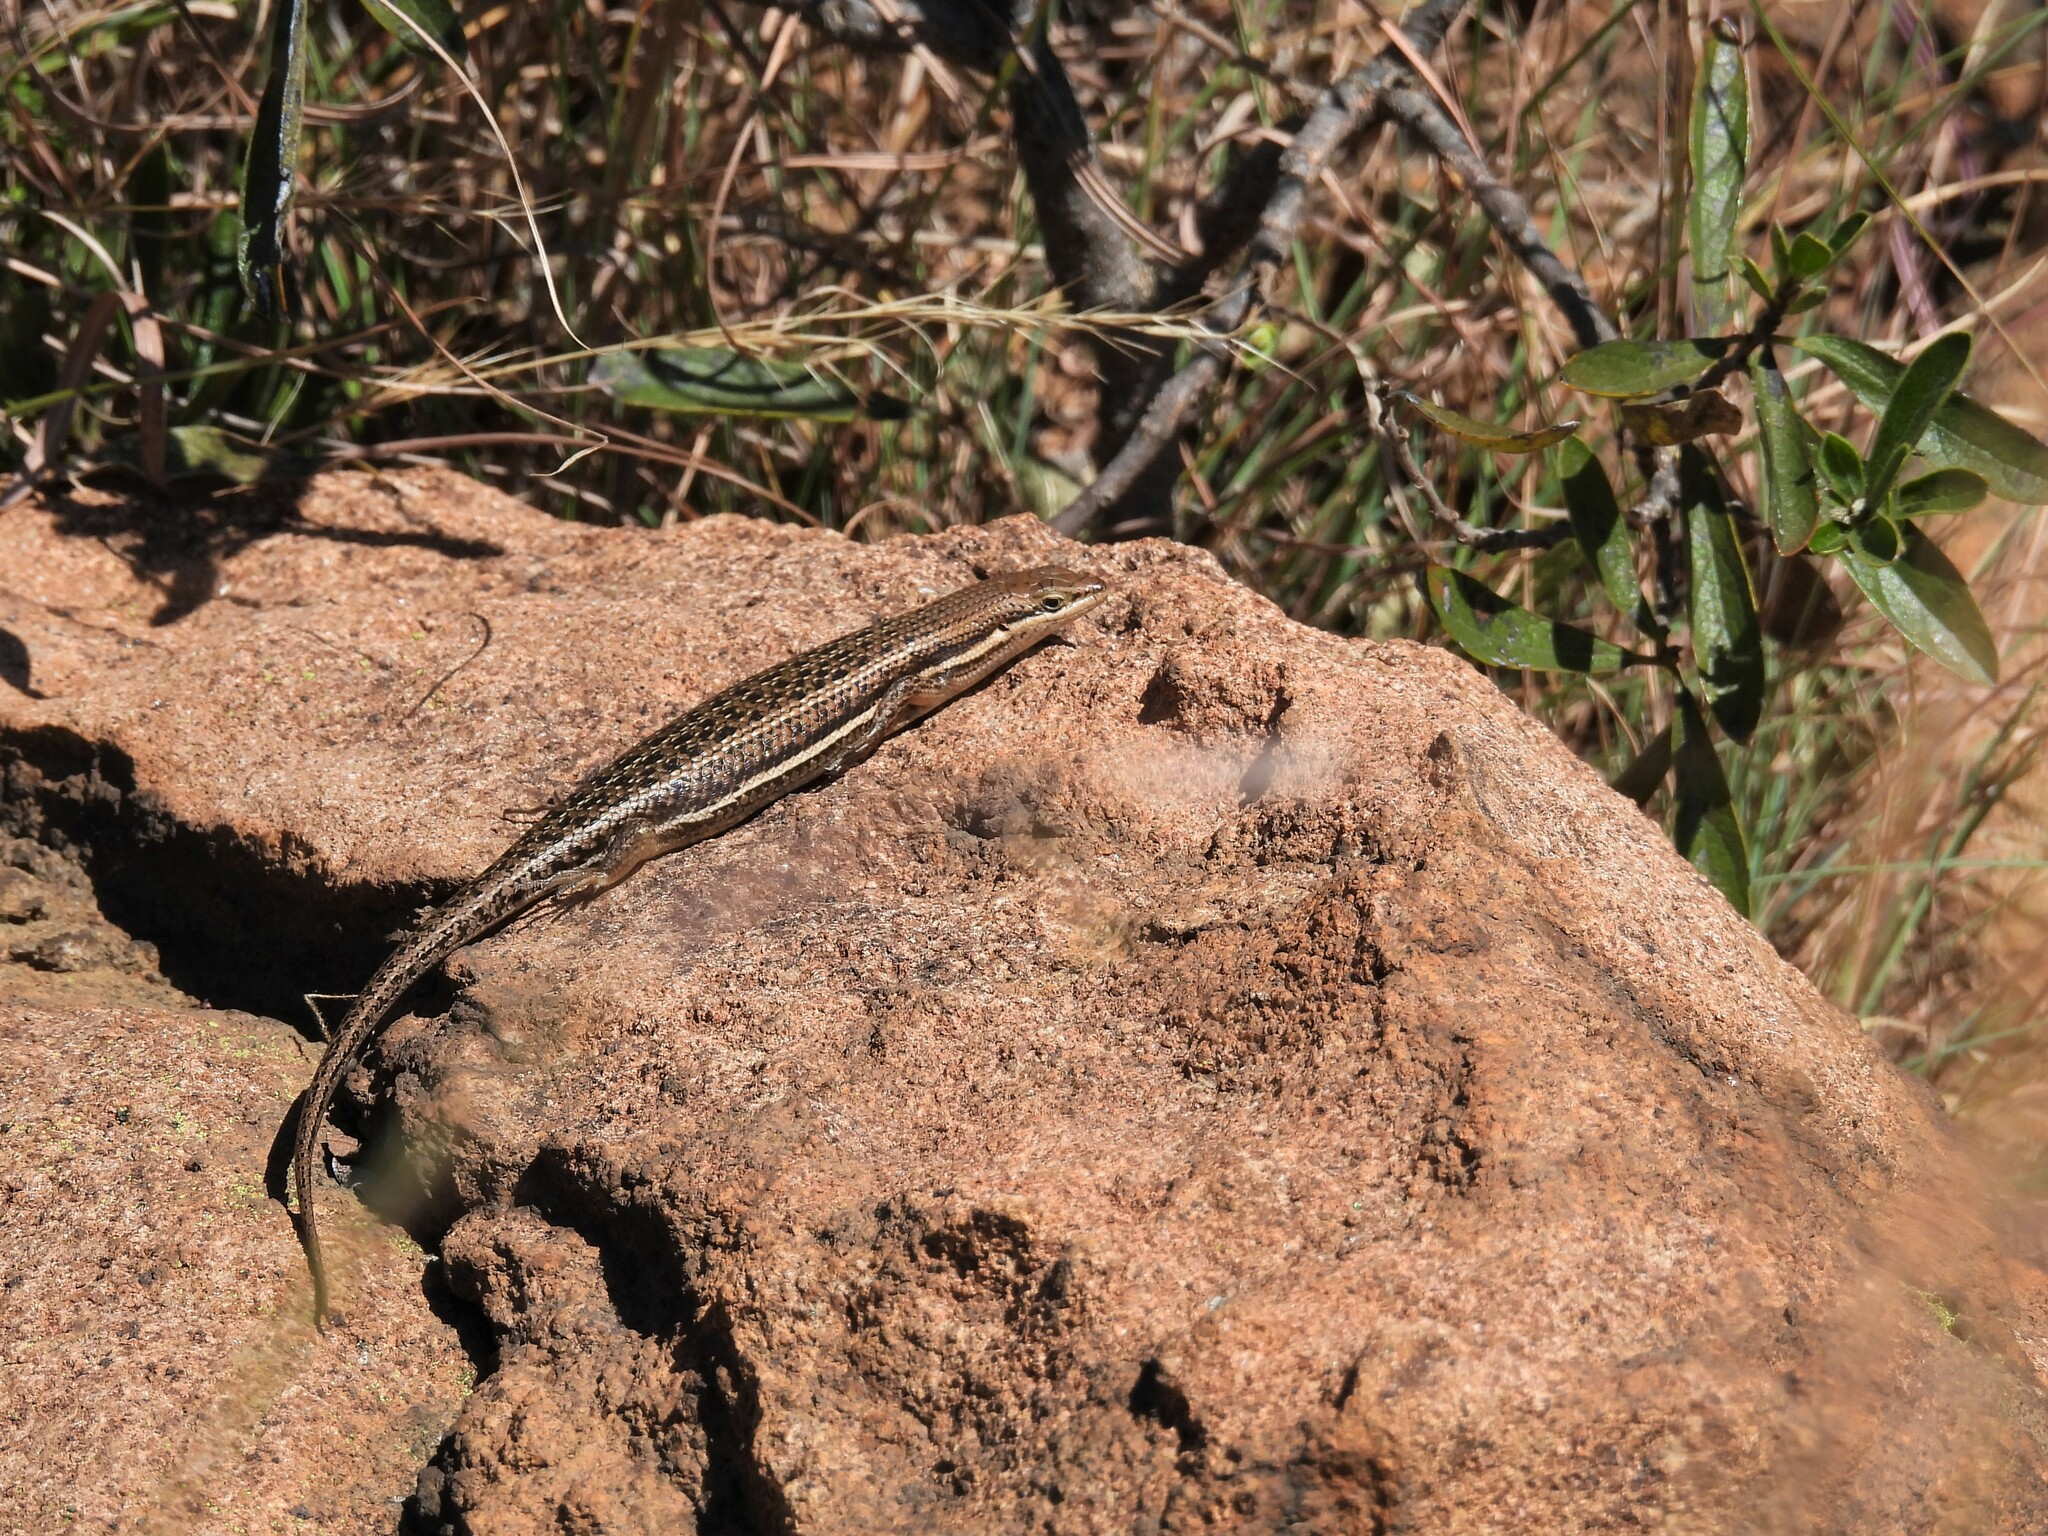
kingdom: Animalia
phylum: Chordata
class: Squamata
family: Scincidae
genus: Trachylepis
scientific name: Trachylepis varia
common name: Eastern variable skink
